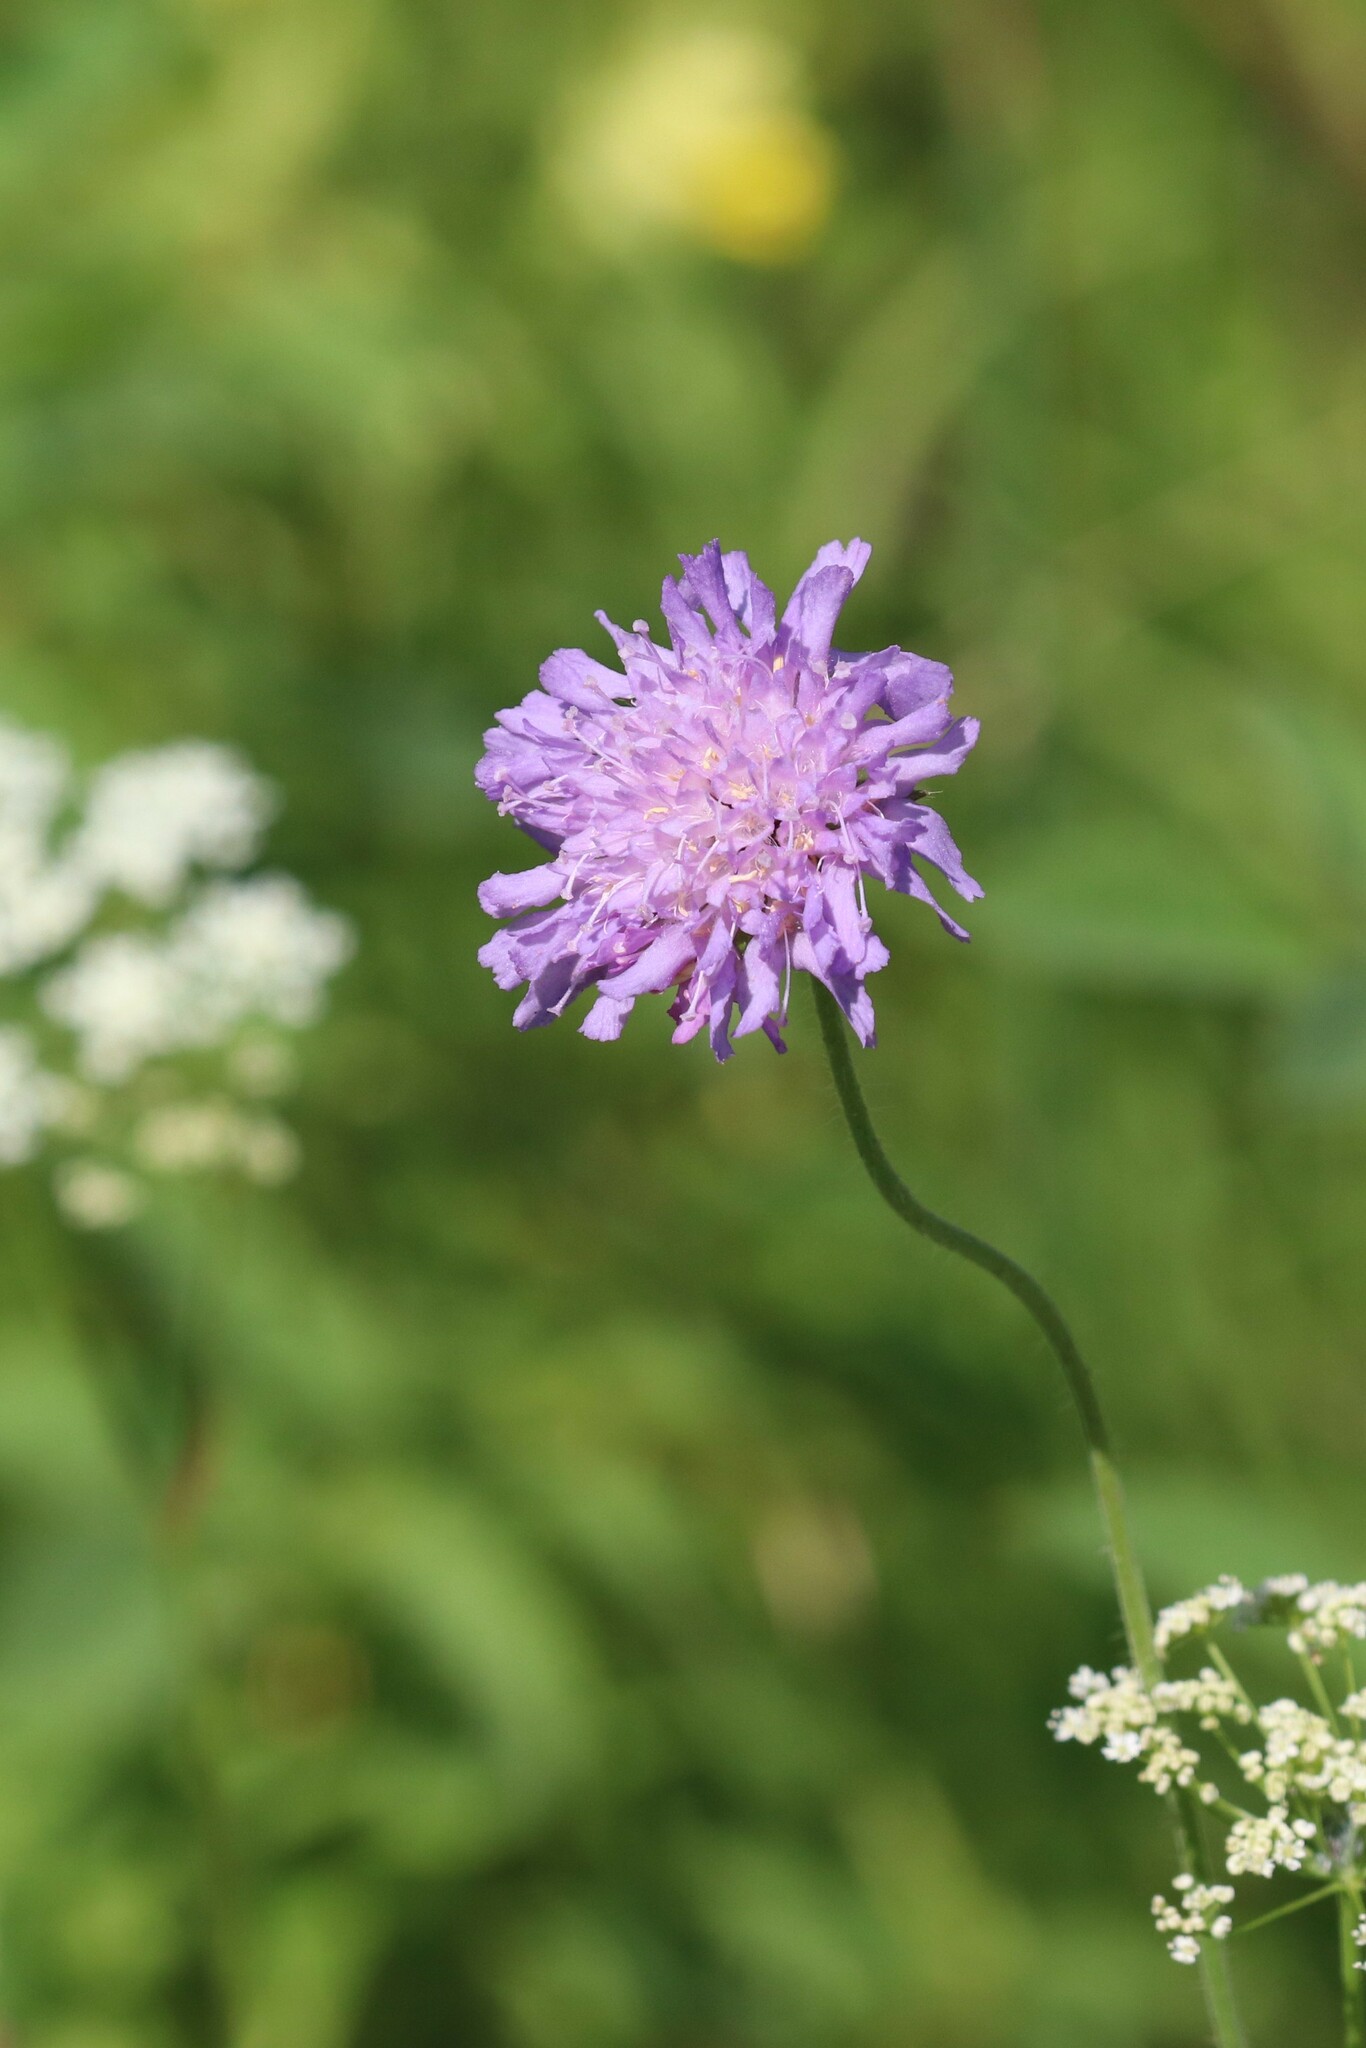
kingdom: Plantae
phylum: Tracheophyta
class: Magnoliopsida
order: Dipsacales
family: Caprifoliaceae
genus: Knautia
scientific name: Knautia arvensis
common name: Field scabiosa
